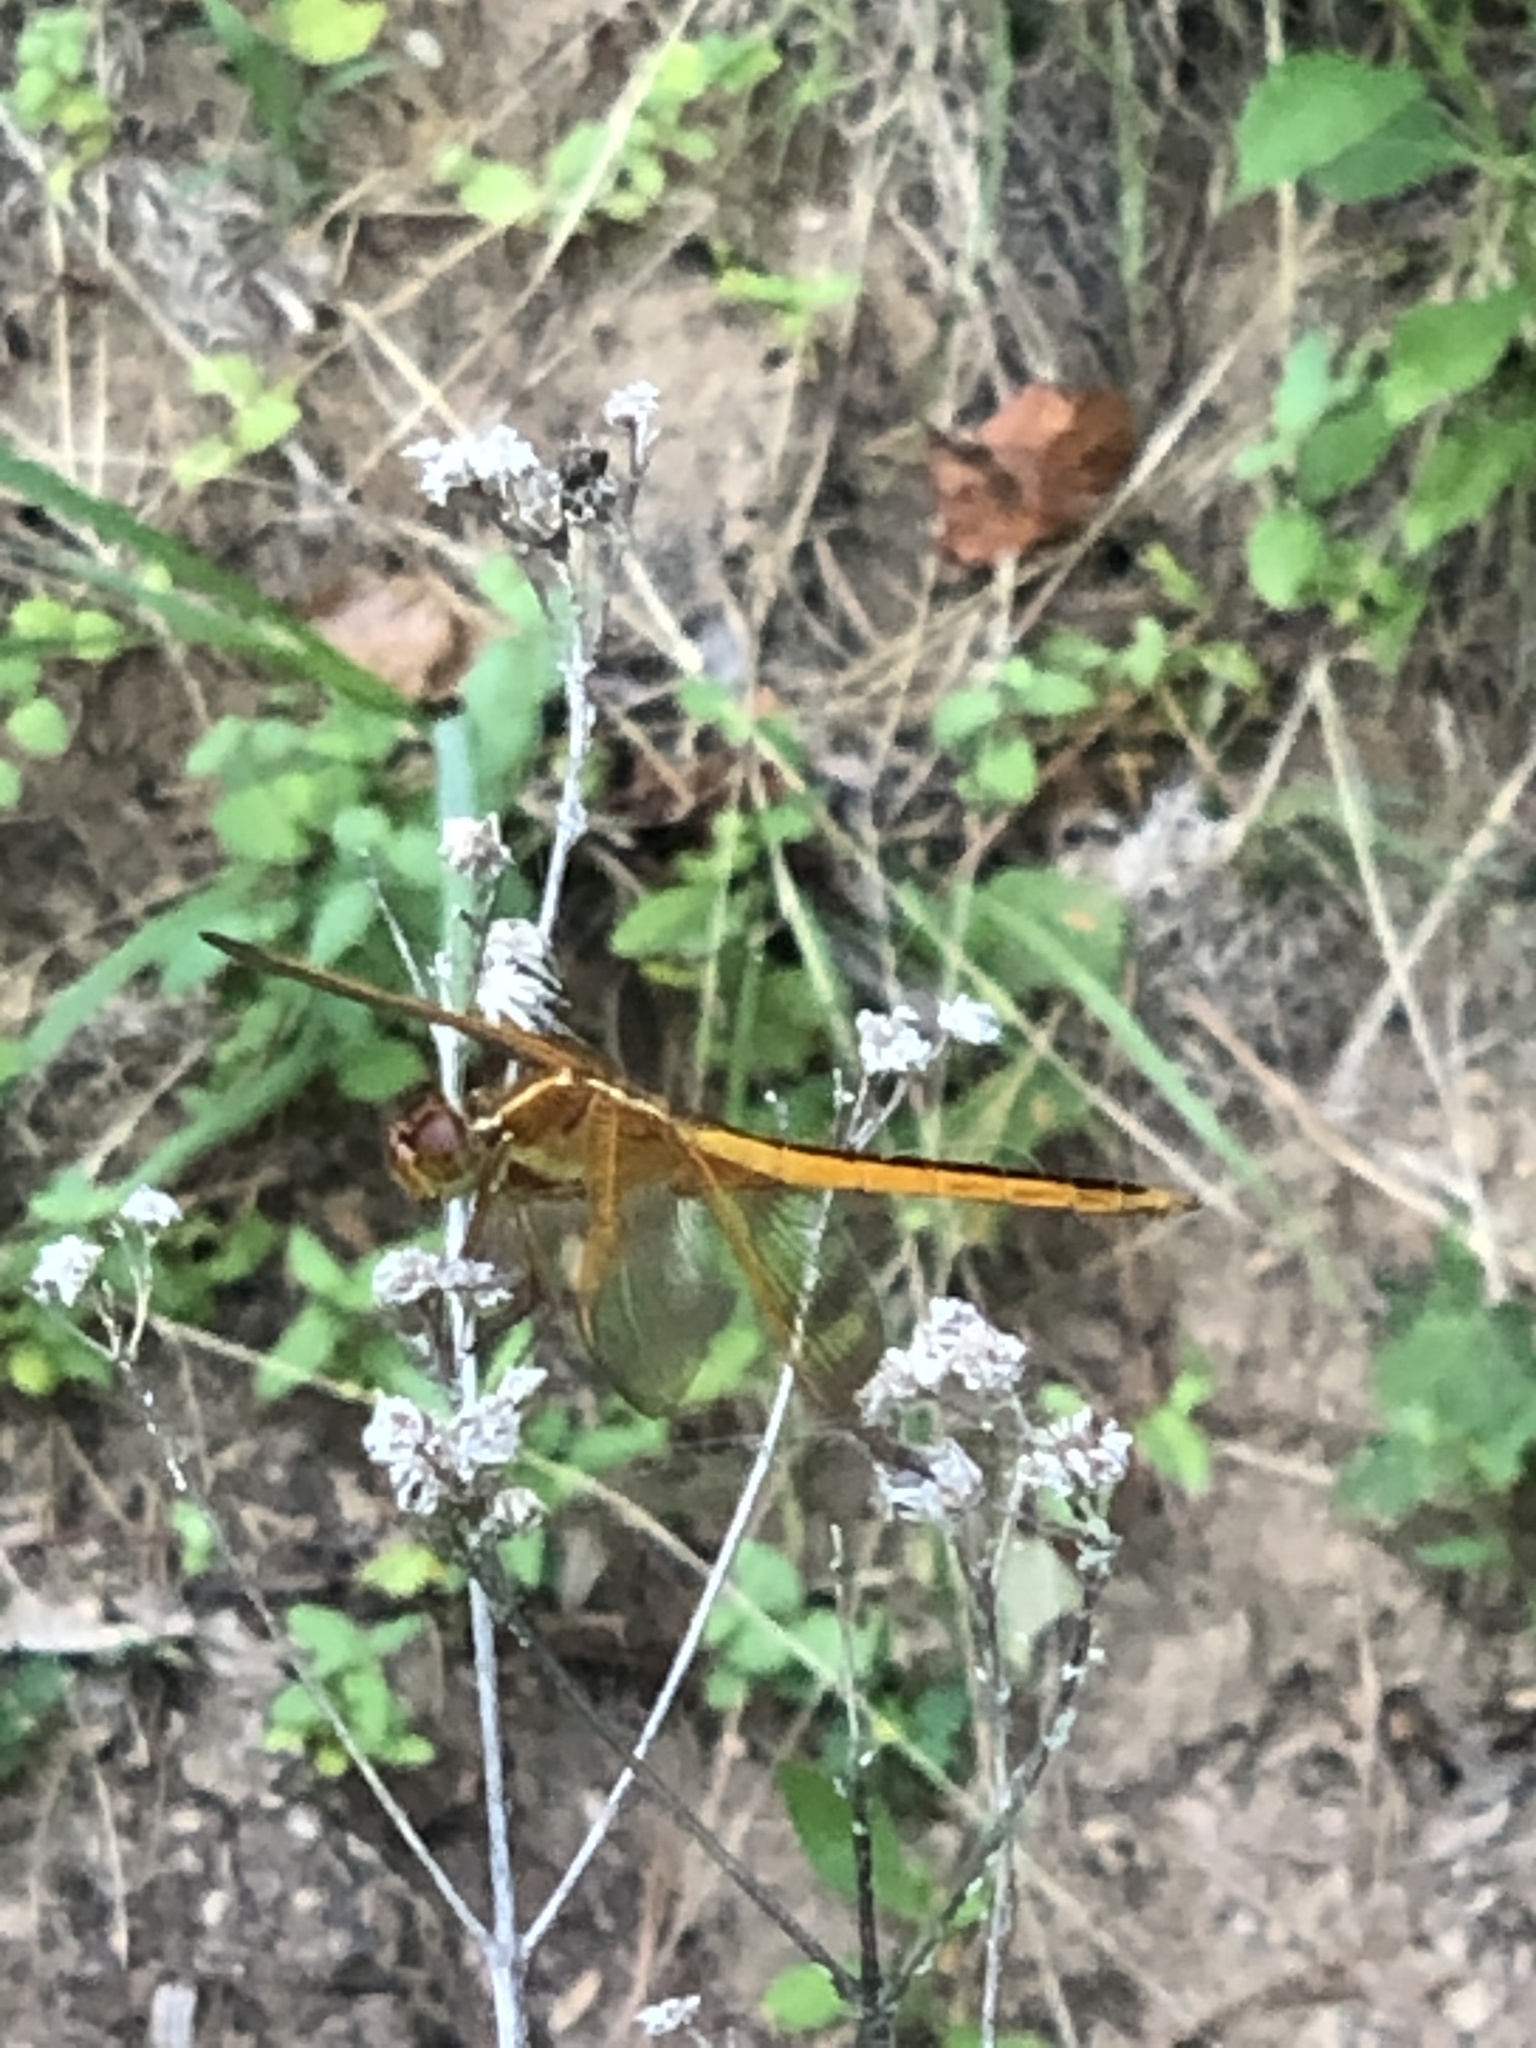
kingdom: Animalia
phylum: Arthropoda
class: Insecta
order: Odonata
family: Libellulidae
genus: Libellula
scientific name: Libellula needhami
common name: Needham's skimmer
